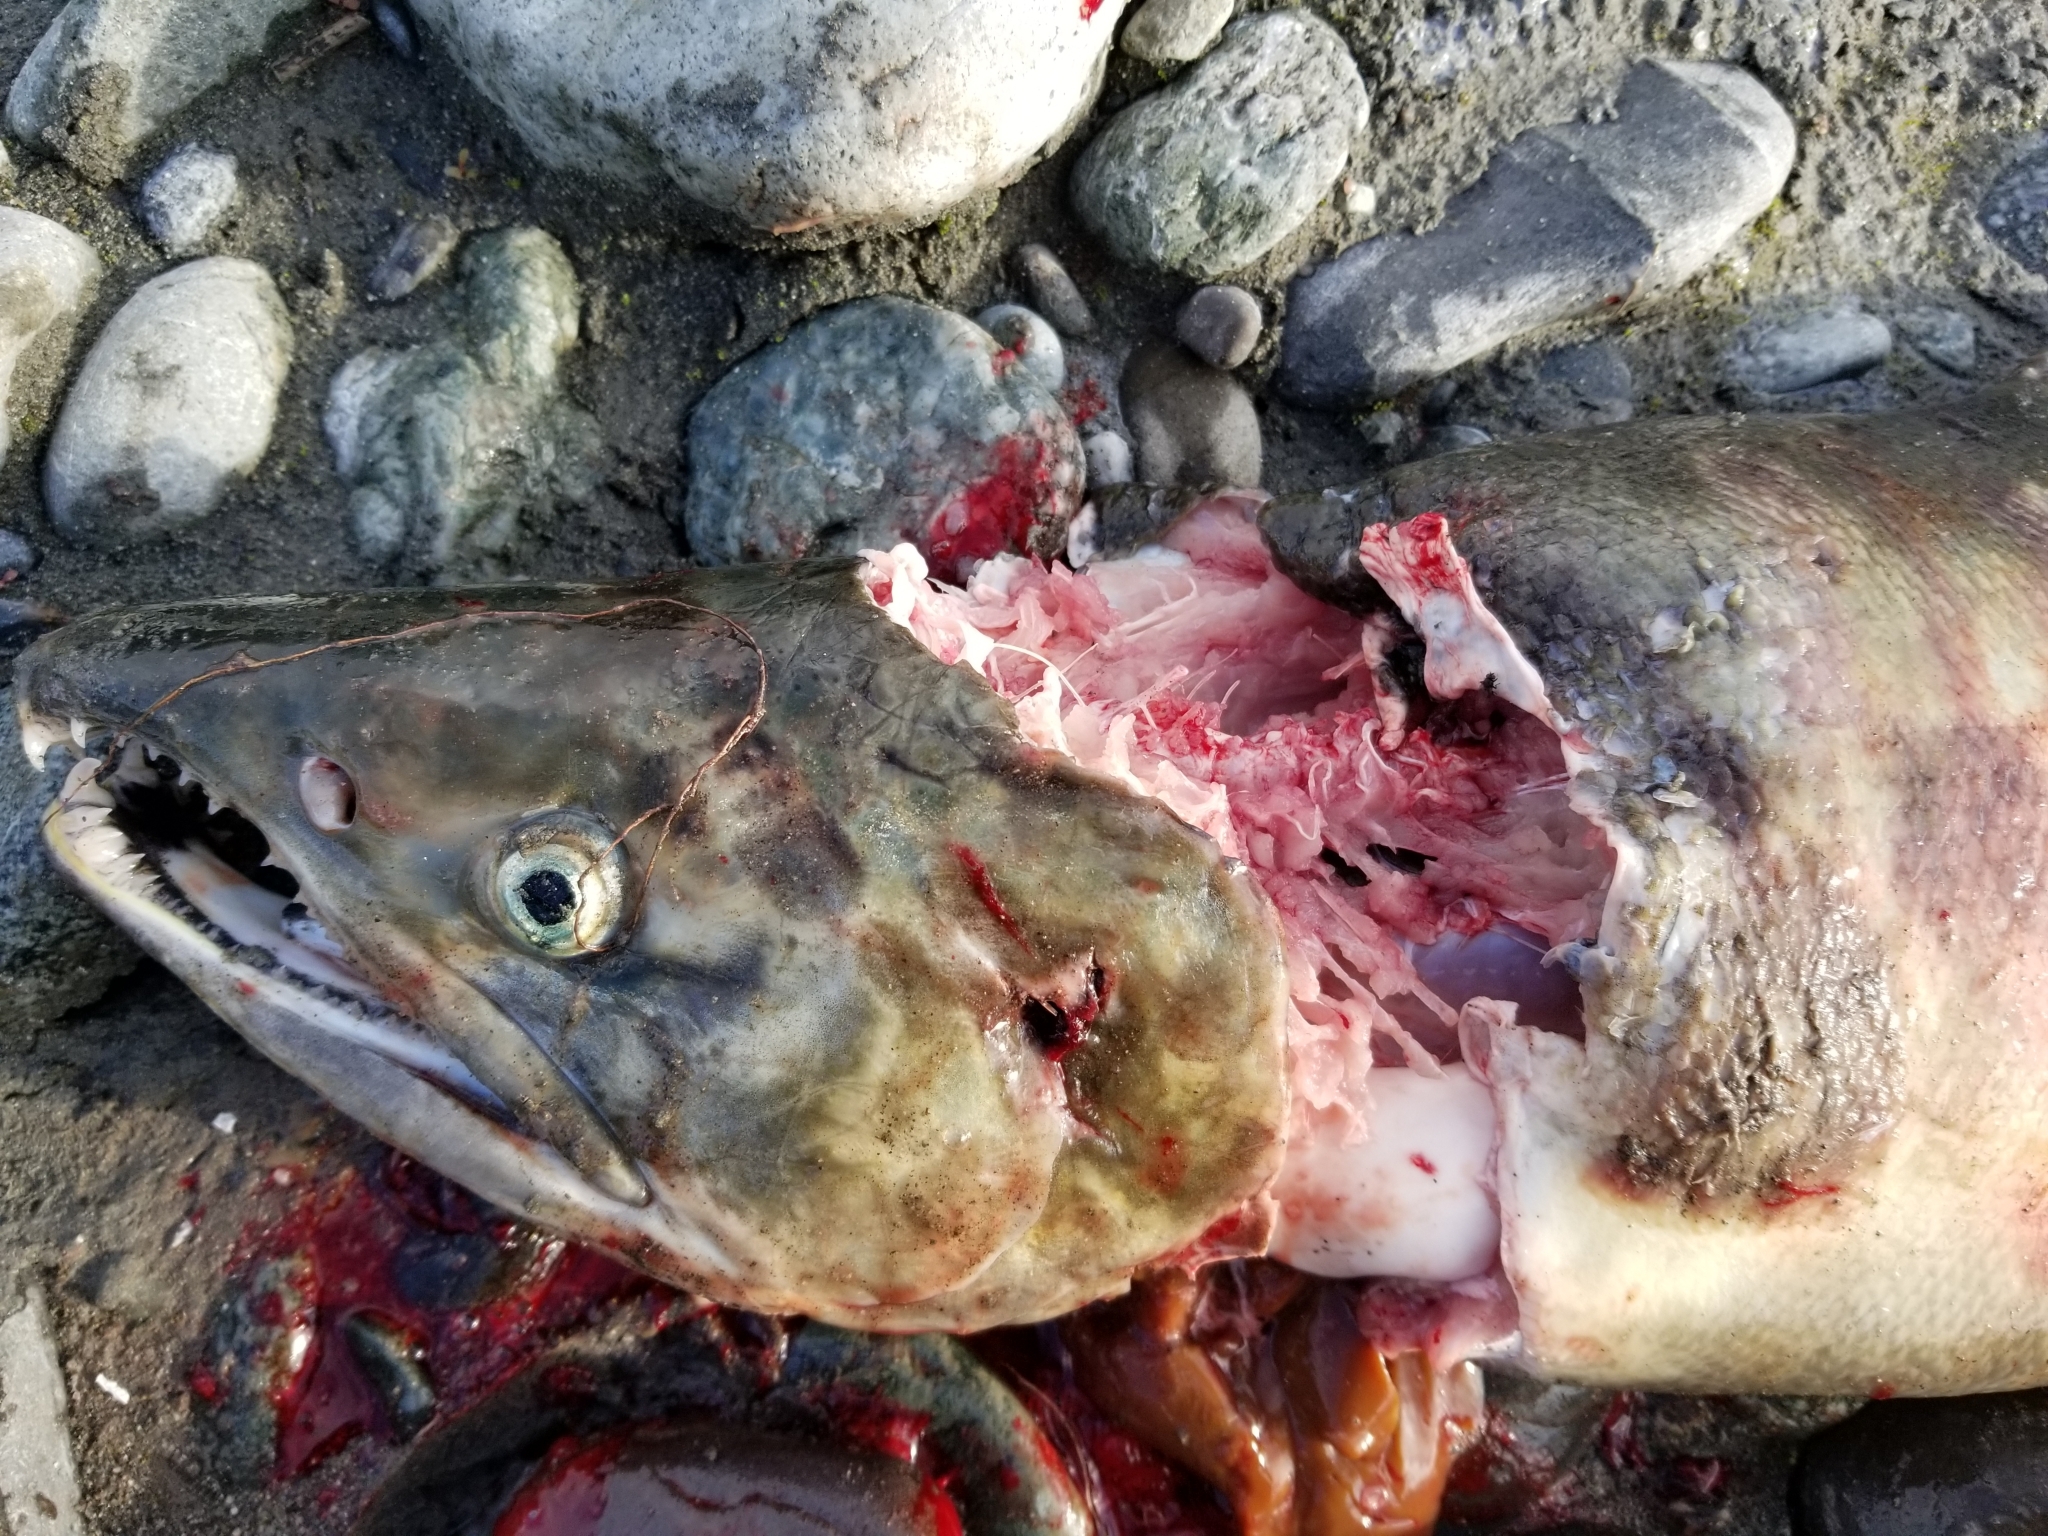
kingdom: Animalia
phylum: Chordata
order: Salmoniformes
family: Salmonidae
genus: Oncorhynchus
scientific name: Oncorhynchus keta
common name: Chum salmon
